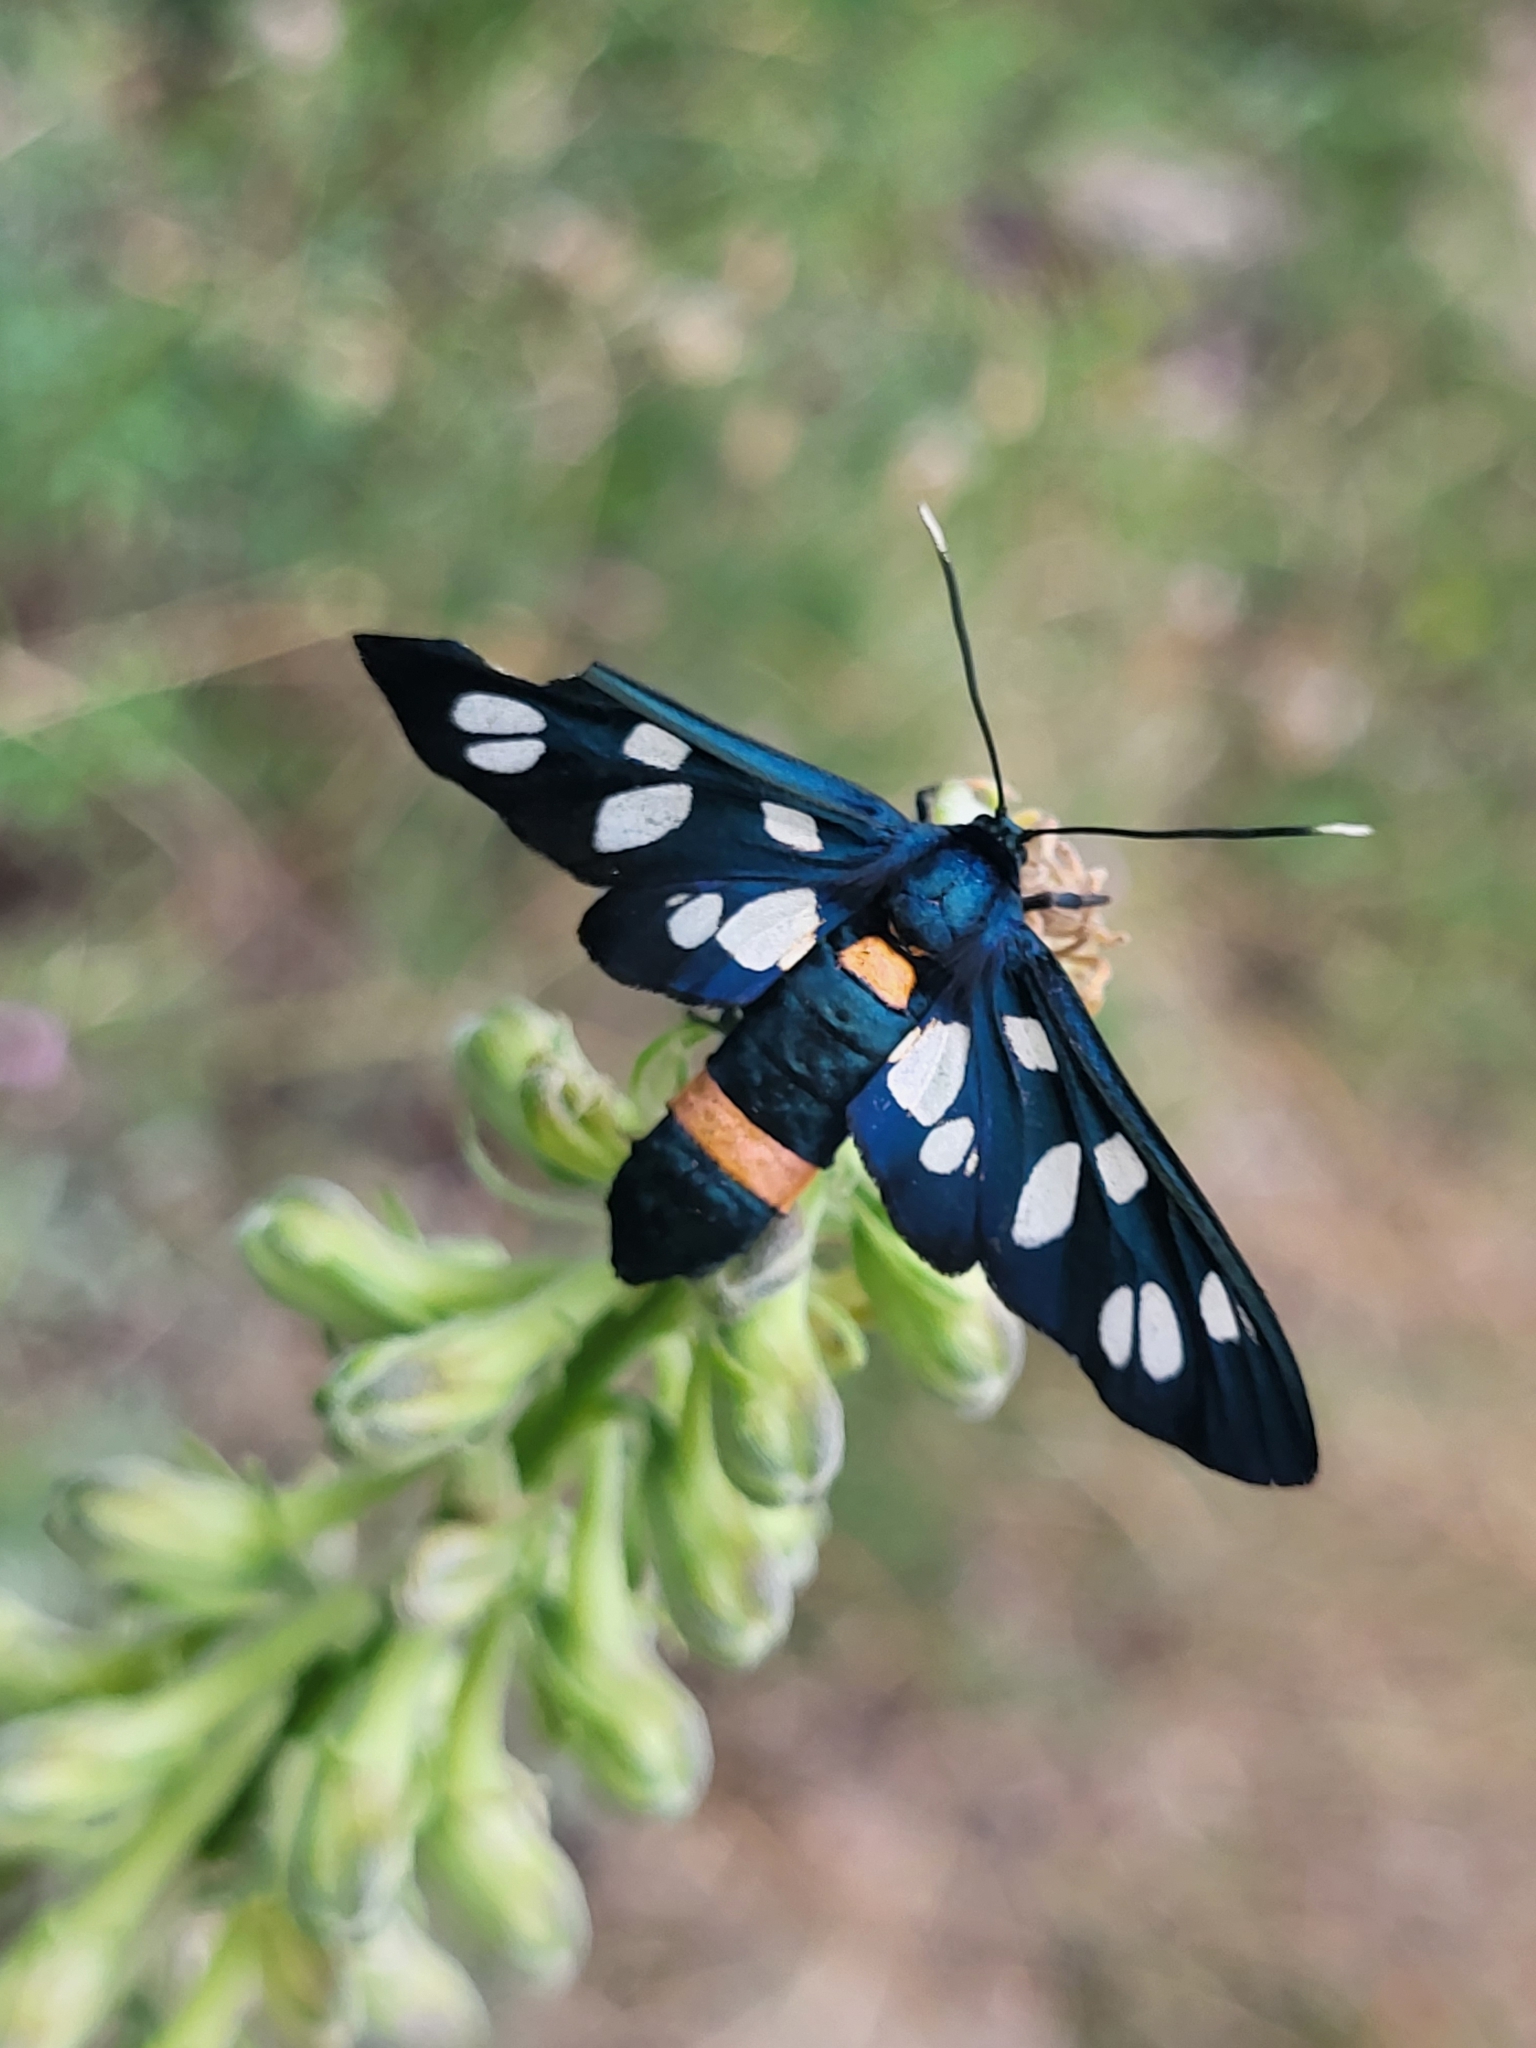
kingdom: Animalia
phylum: Arthropoda
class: Insecta
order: Lepidoptera
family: Erebidae
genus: Amata
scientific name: Amata nigricornis
